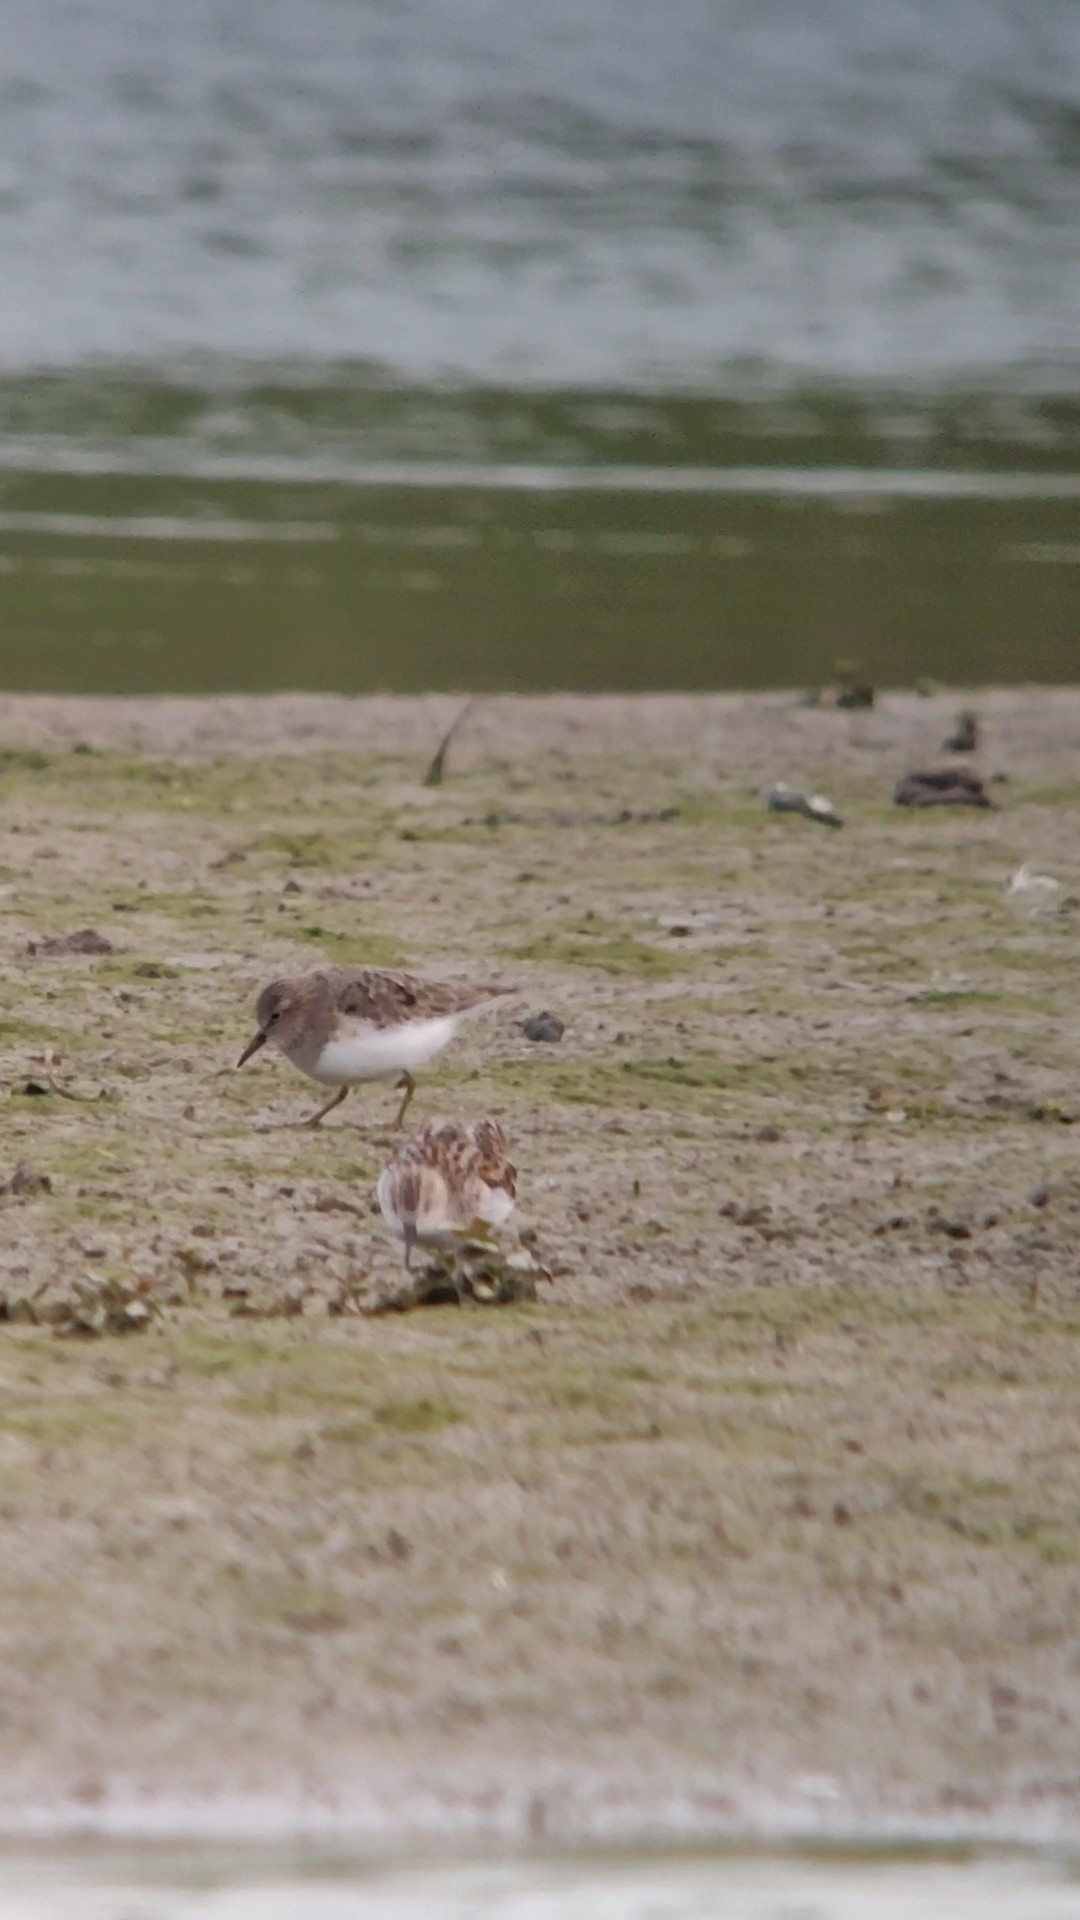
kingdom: Animalia
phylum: Chordata
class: Aves
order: Charadriiformes
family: Scolopacidae
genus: Calidris
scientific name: Calidris temminckii
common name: Temminck's stint
